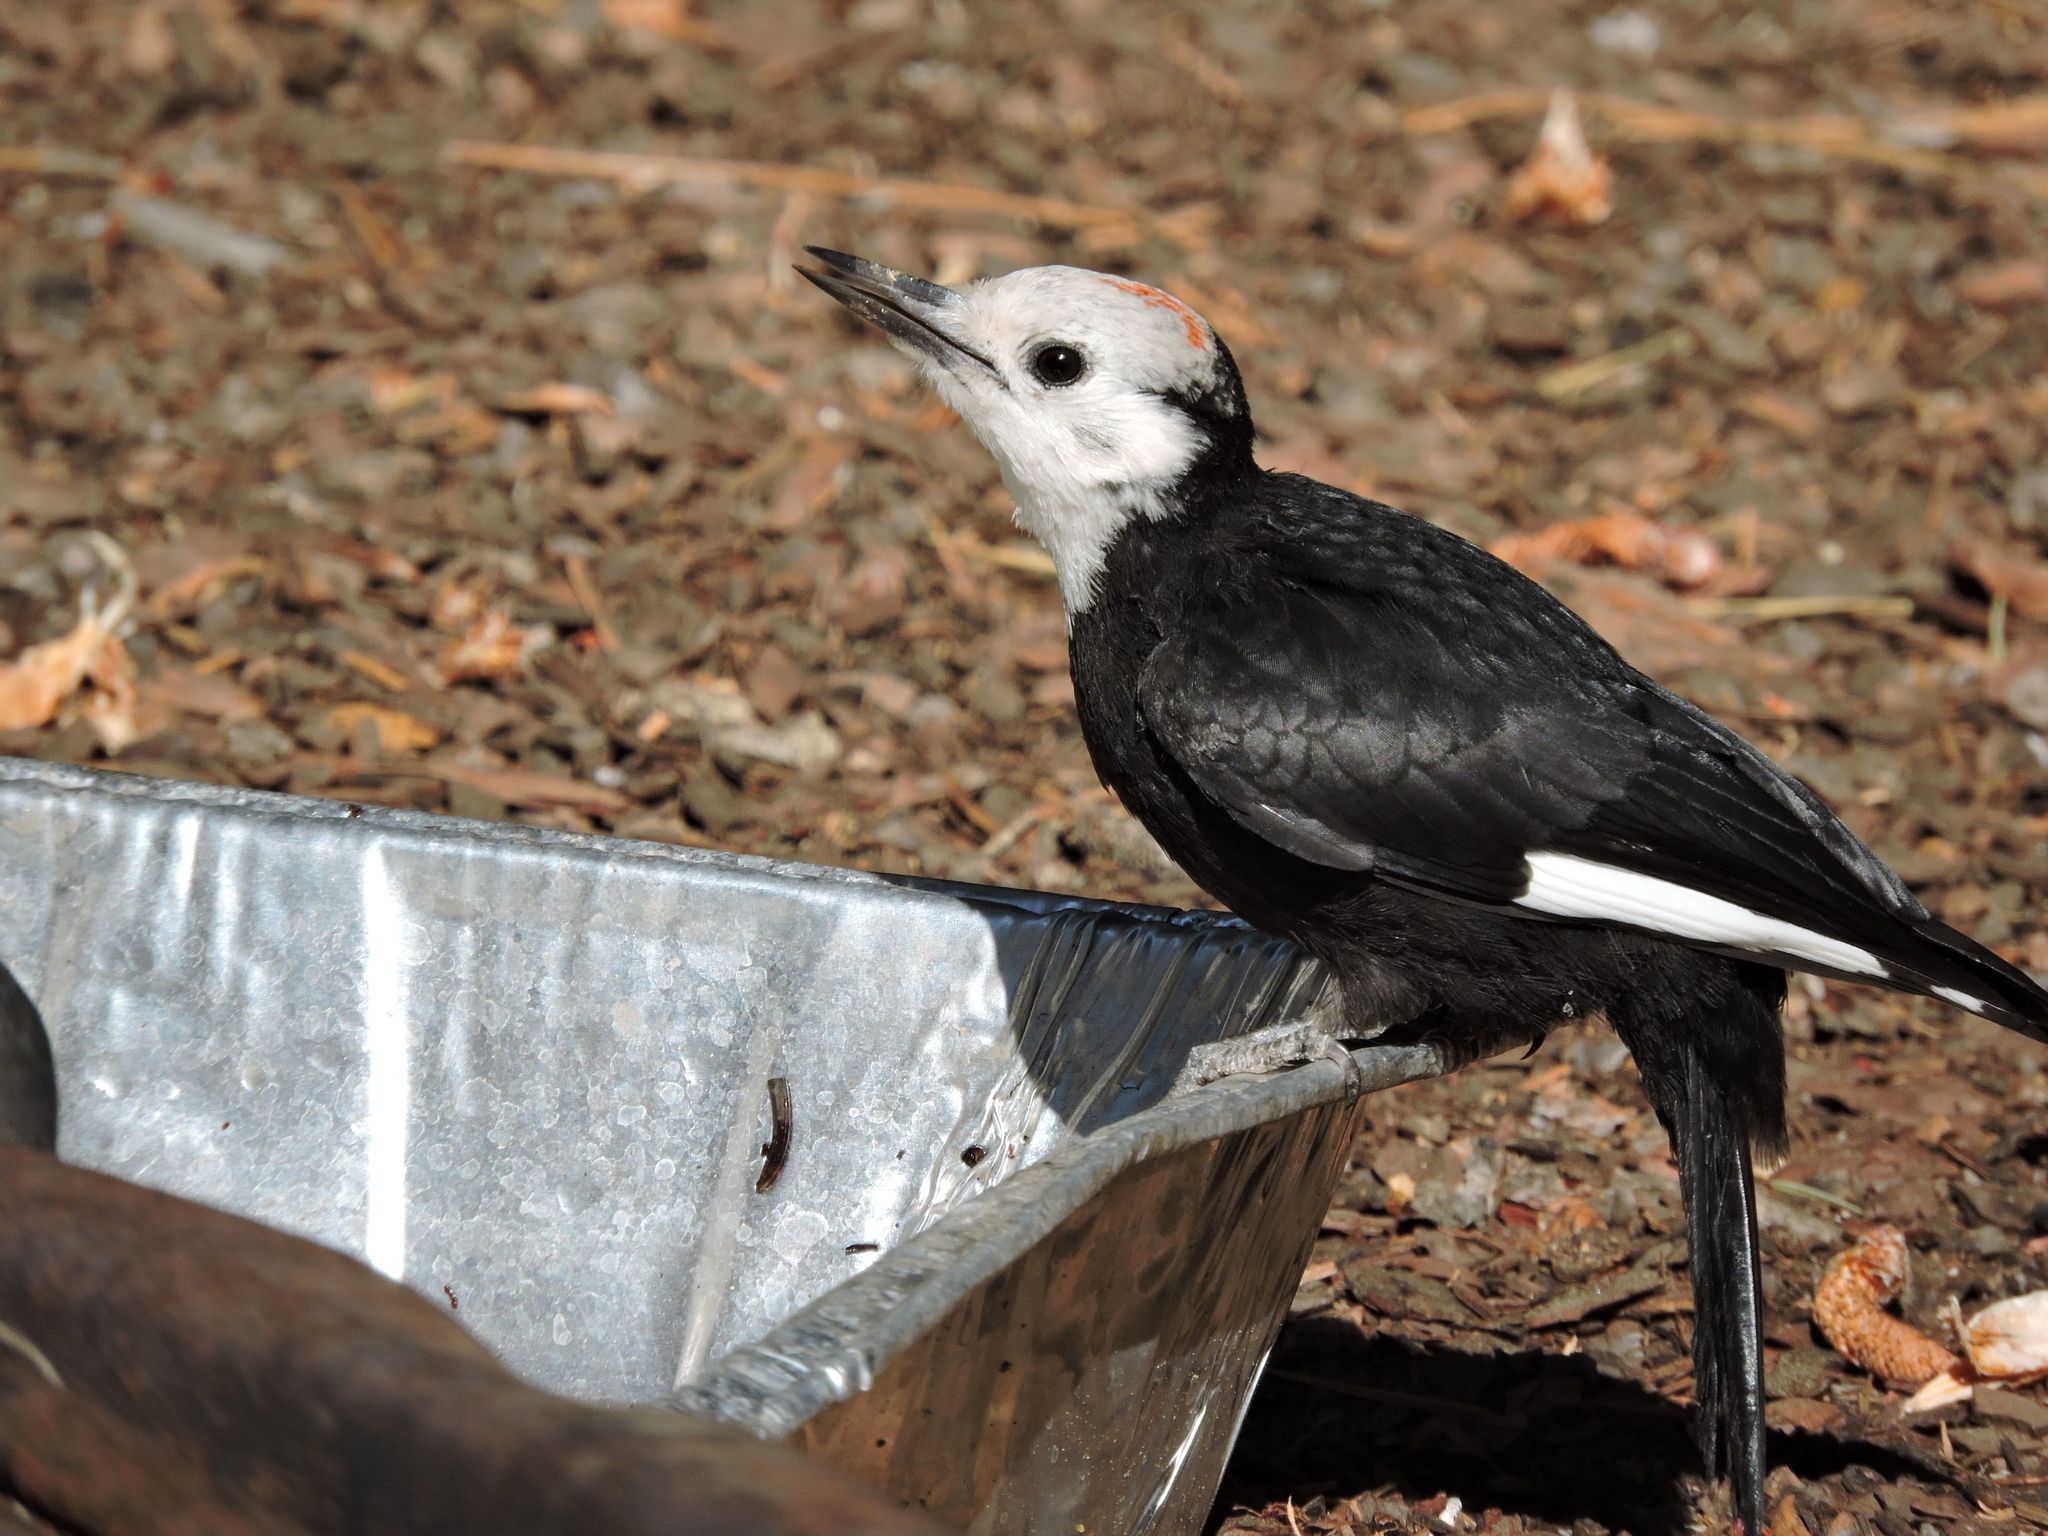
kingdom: Animalia
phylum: Chordata
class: Aves
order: Piciformes
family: Picidae
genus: Leuconotopicus
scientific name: Leuconotopicus albolarvatus
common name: White-headed woodpecker
